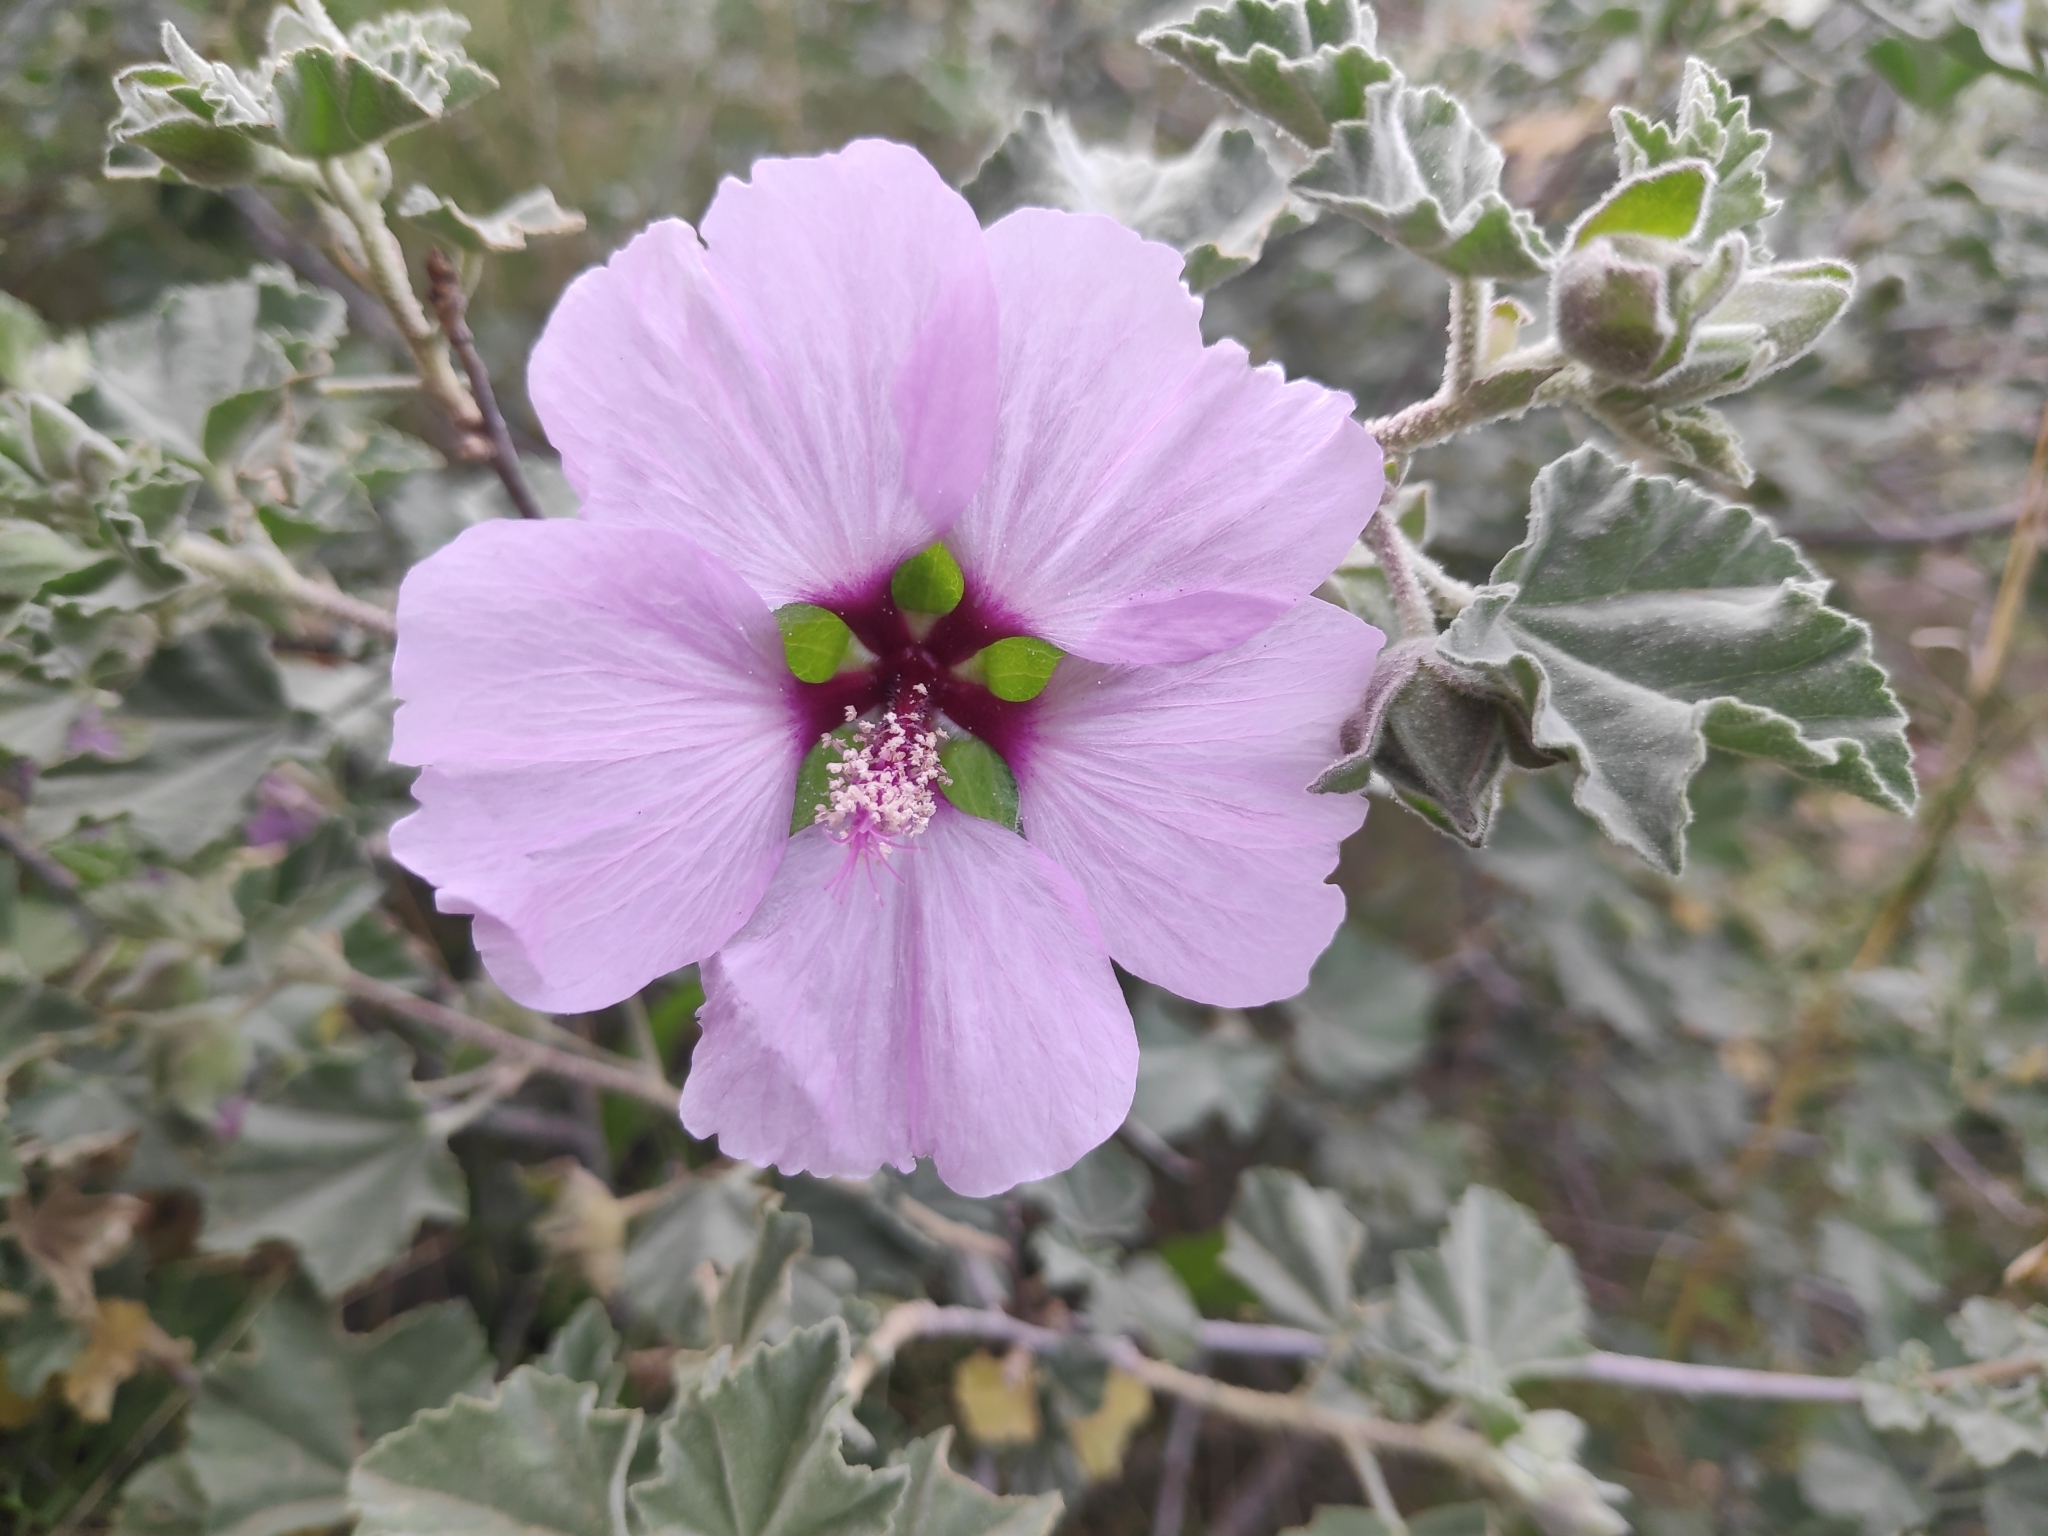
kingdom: Plantae
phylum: Tracheophyta
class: Magnoliopsida
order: Malvales
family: Malvaceae
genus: Malva
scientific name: Malva subovata
